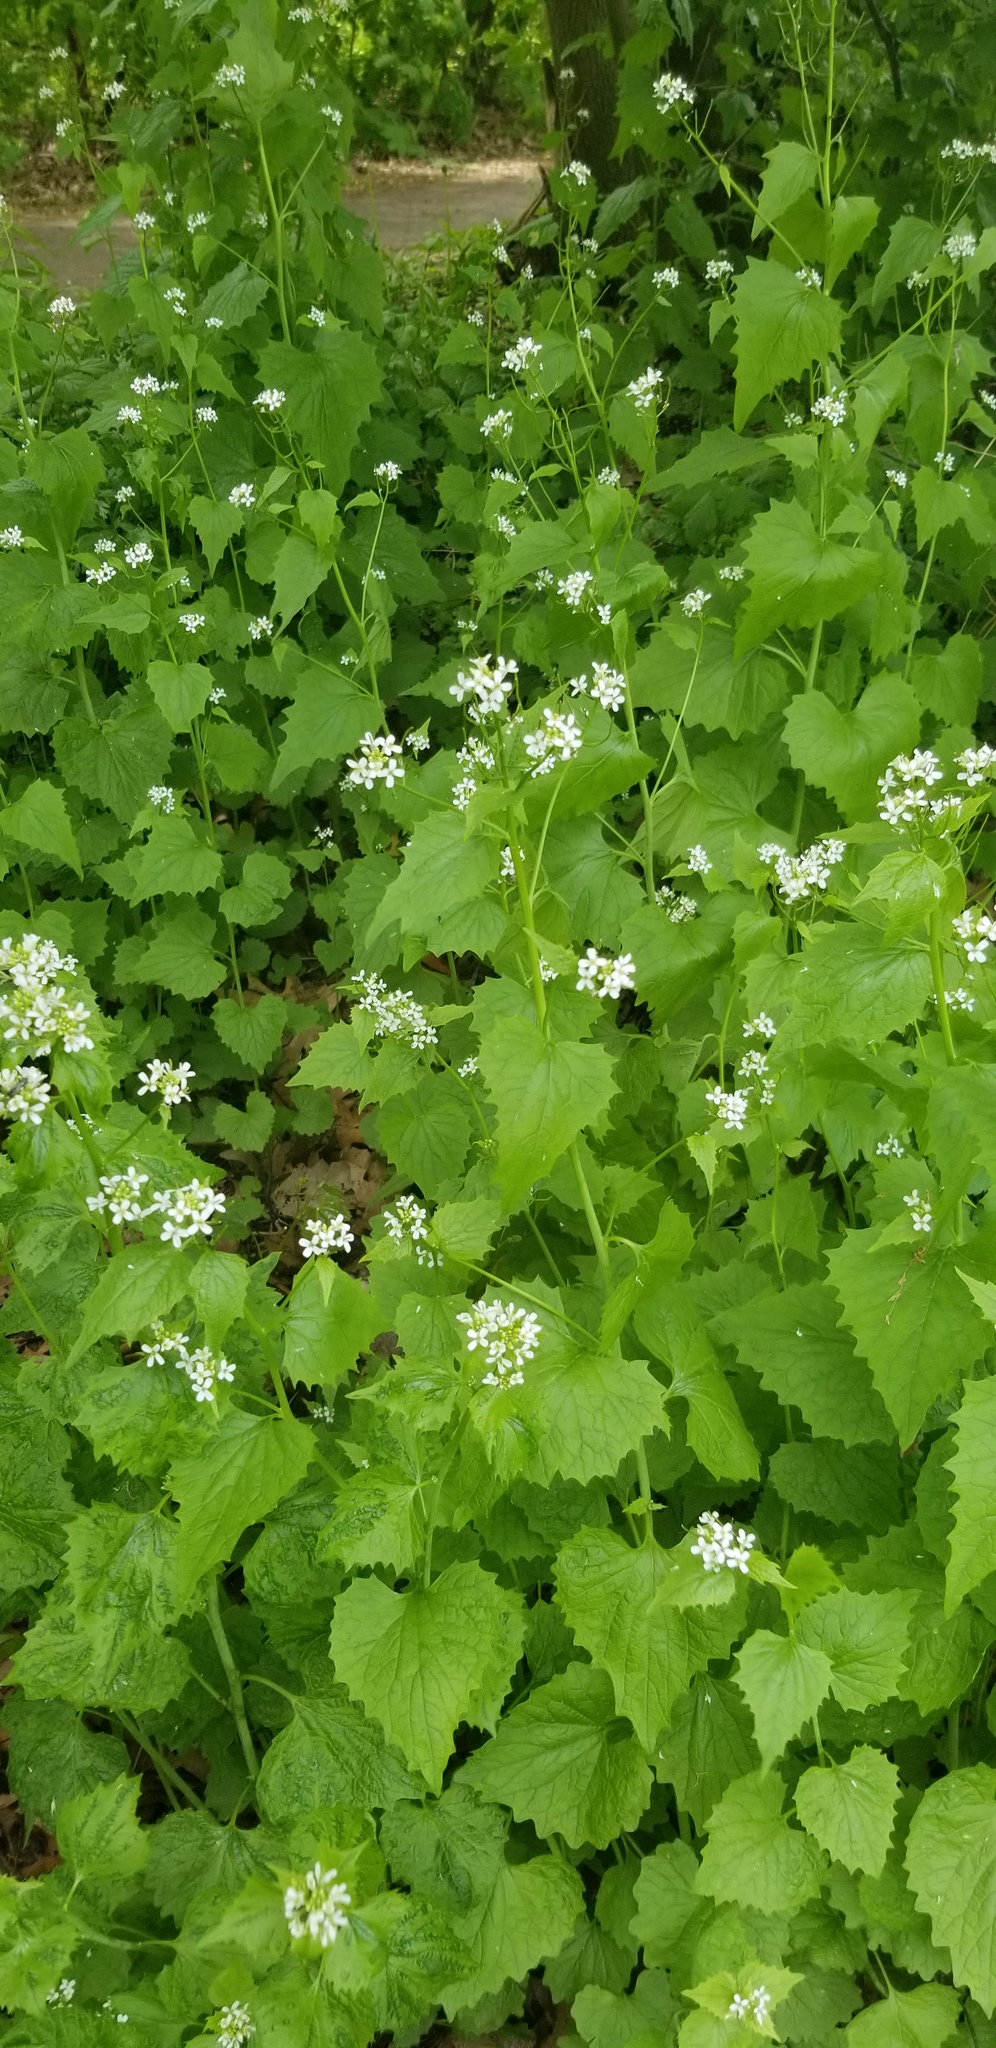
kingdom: Plantae
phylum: Tracheophyta
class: Magnoliopsida
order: Brassicales
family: Brassicaceae
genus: Alliaria
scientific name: Alliaria petiolata
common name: Garlic mustard
